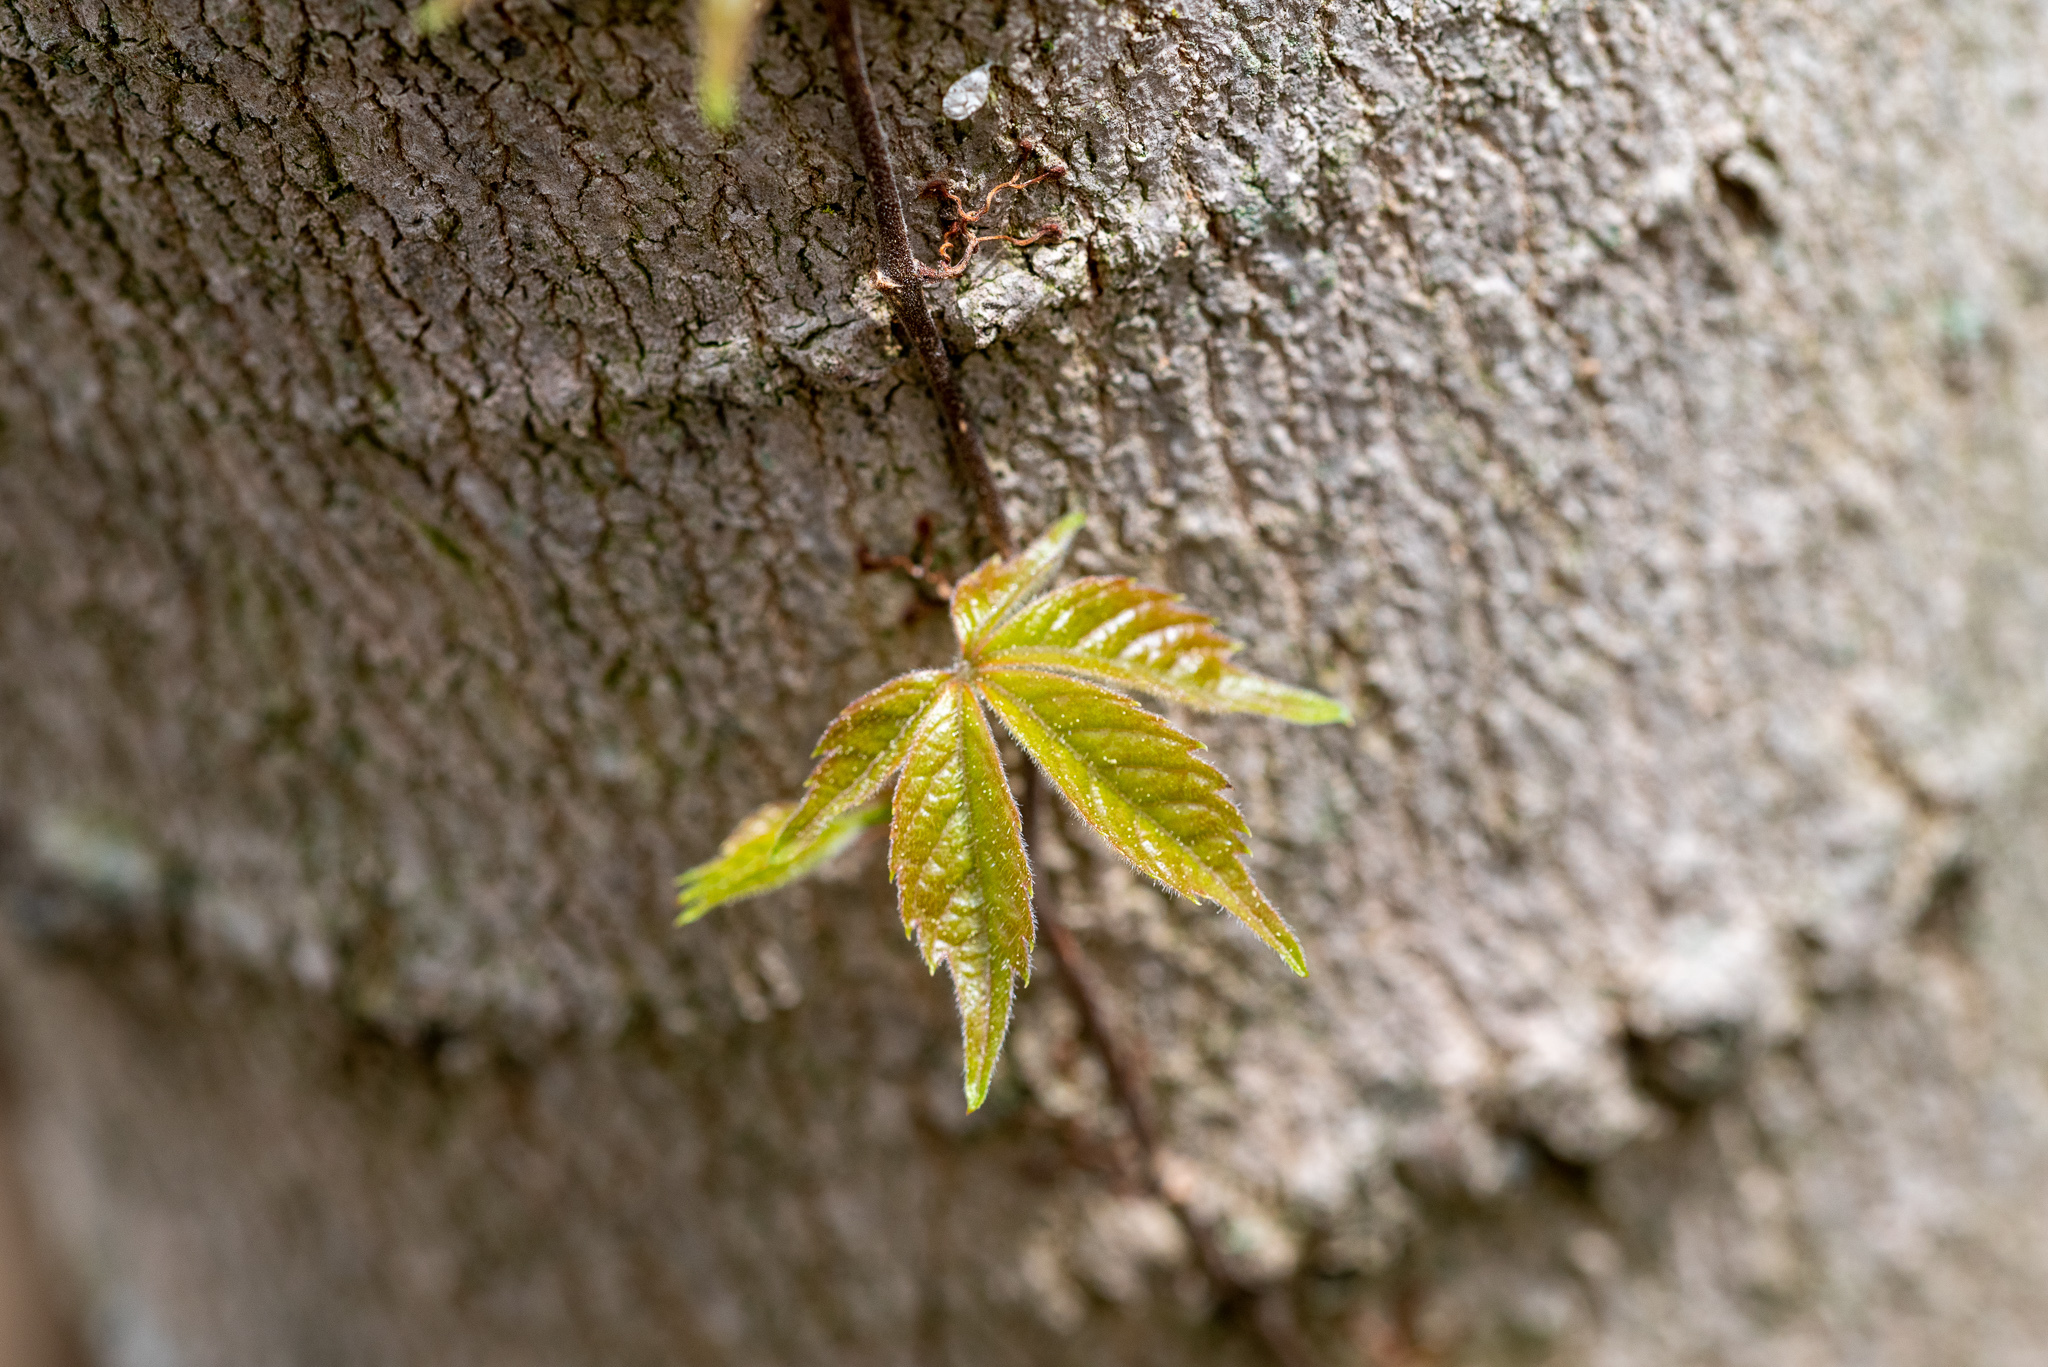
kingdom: Plantae
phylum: Tracheophyta
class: Magnoliopsida
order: Vitales
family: Vitaceae
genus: Parthenocissus
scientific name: Parthenocissus quinquefolia
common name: Virginia-creeper
